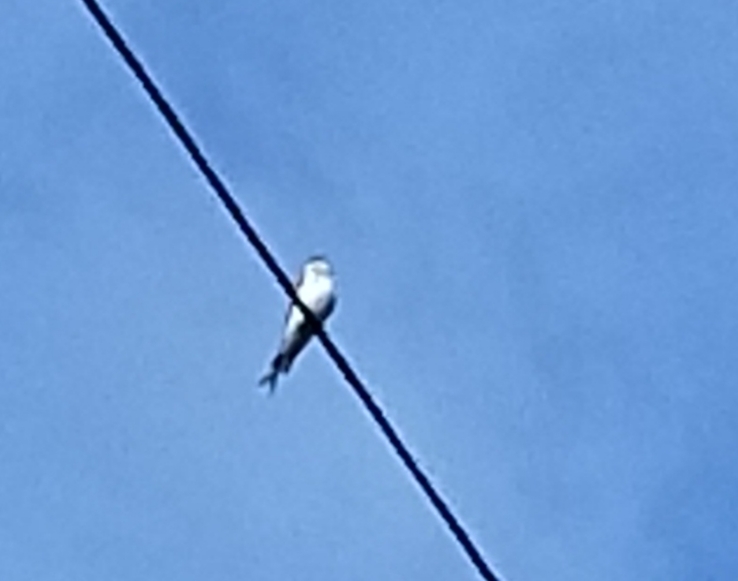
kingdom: Animalia
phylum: Chordata
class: Aves
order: Passeriformes
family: Hirundinidae
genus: Tachycineta
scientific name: Tachycineta bicolor
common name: Tree swallow
